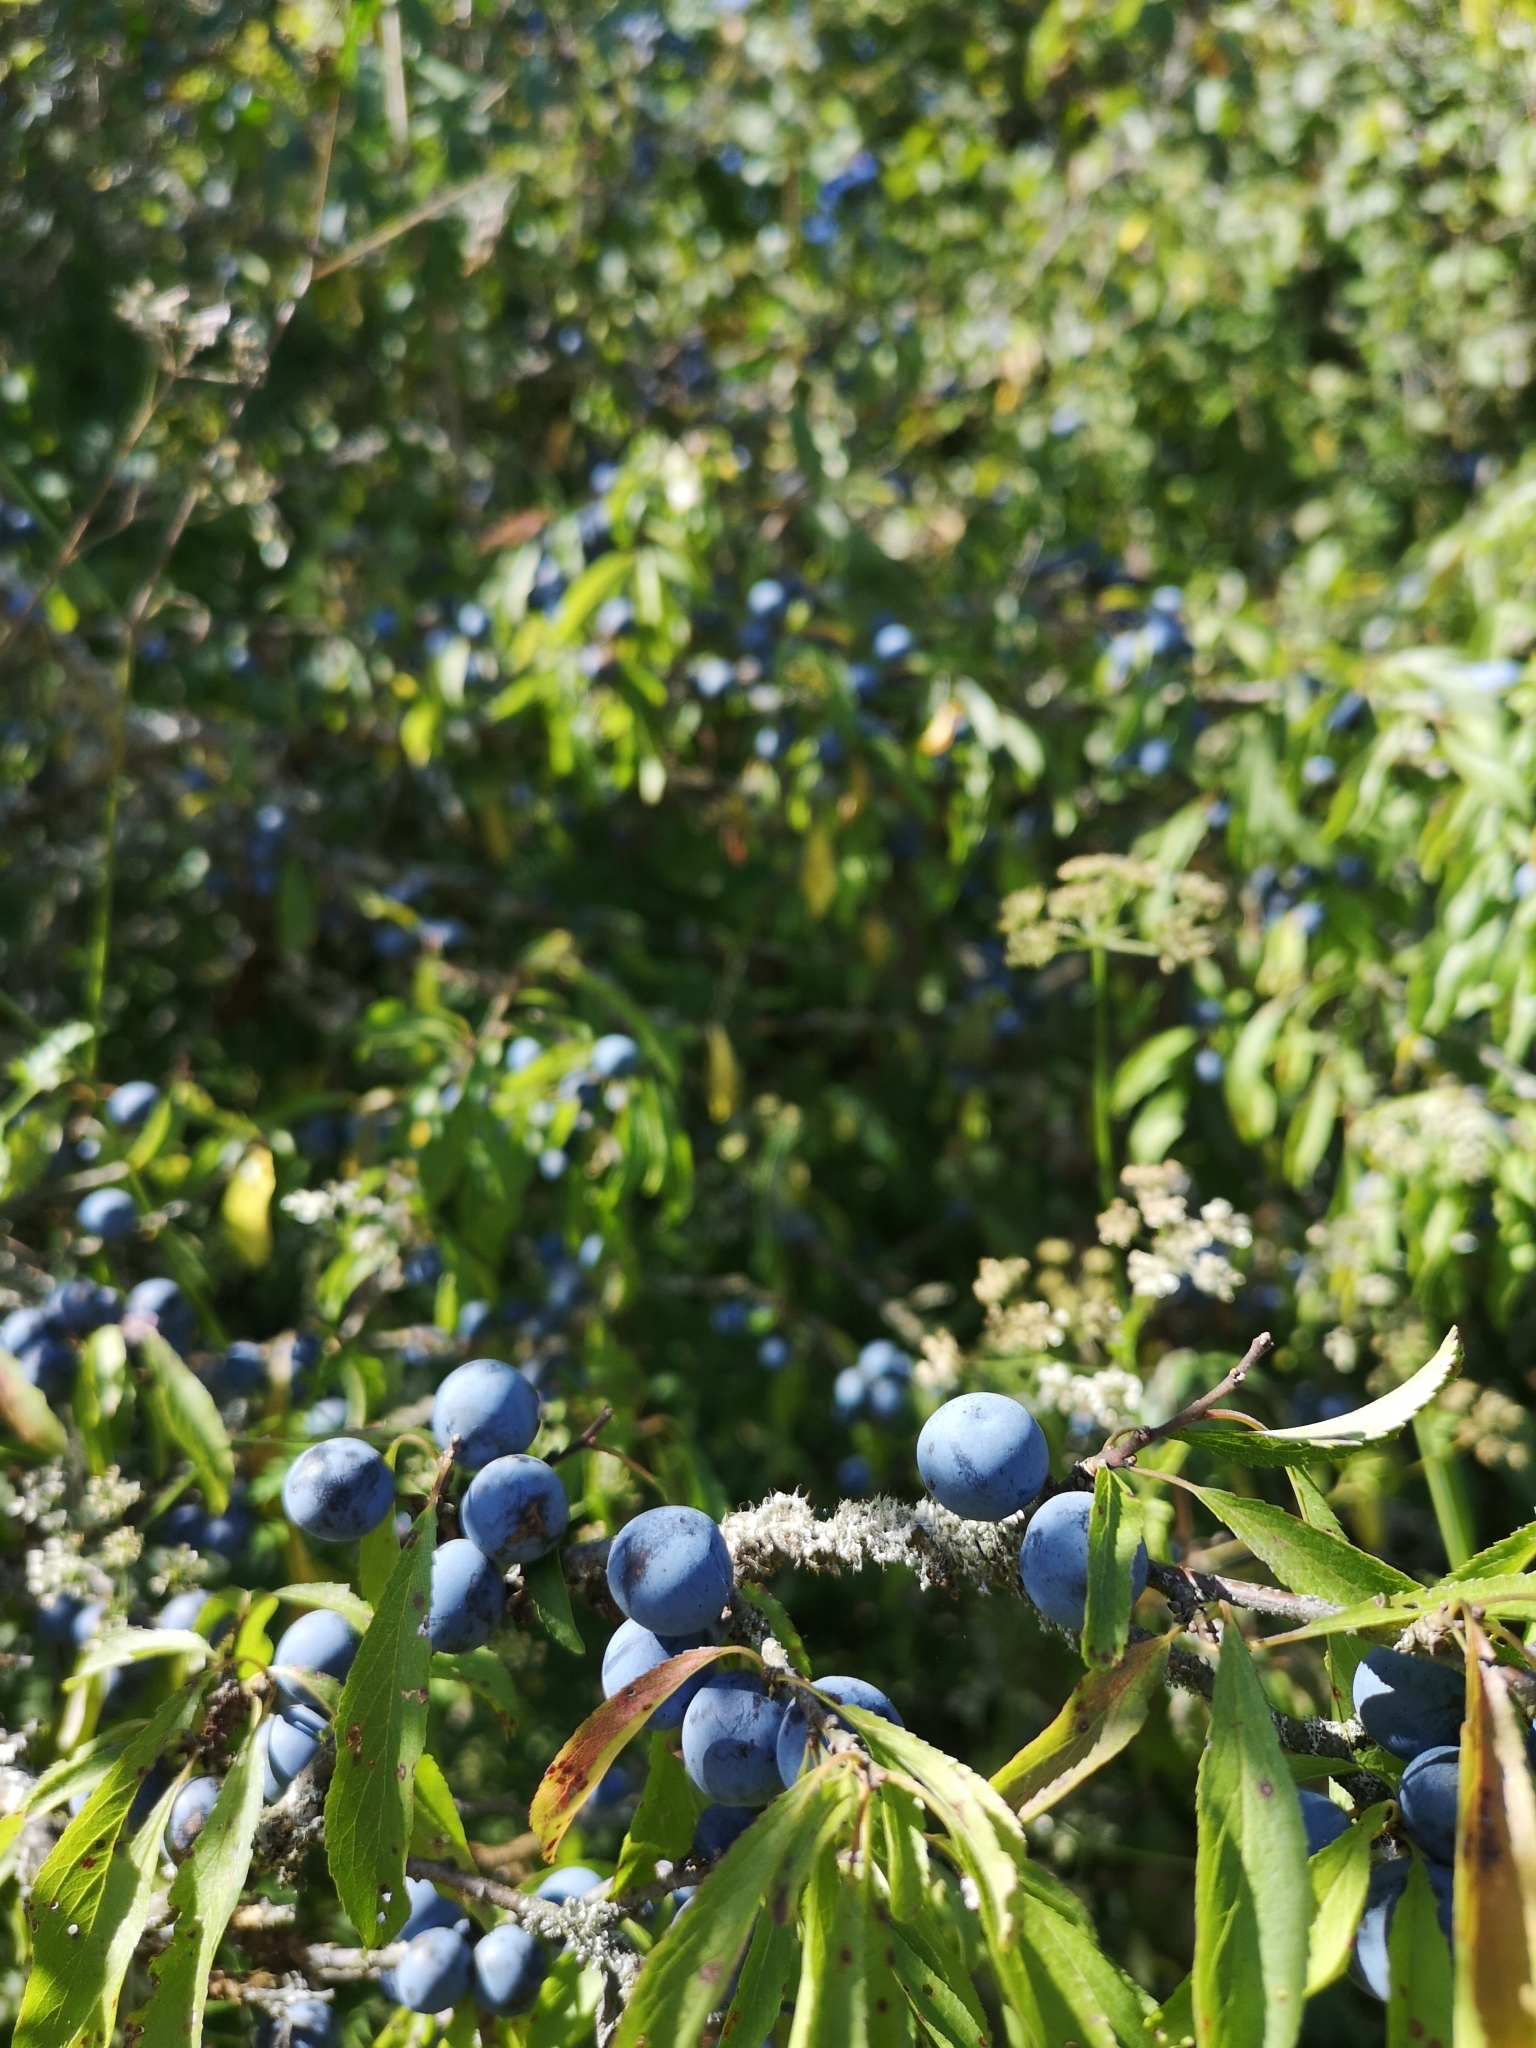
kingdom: Plantae
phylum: Tracheophyta
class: Magnoliopsida
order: Rosales
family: Rosaceae
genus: Prunus
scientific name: Prunus spinosa
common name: Blackthorn
